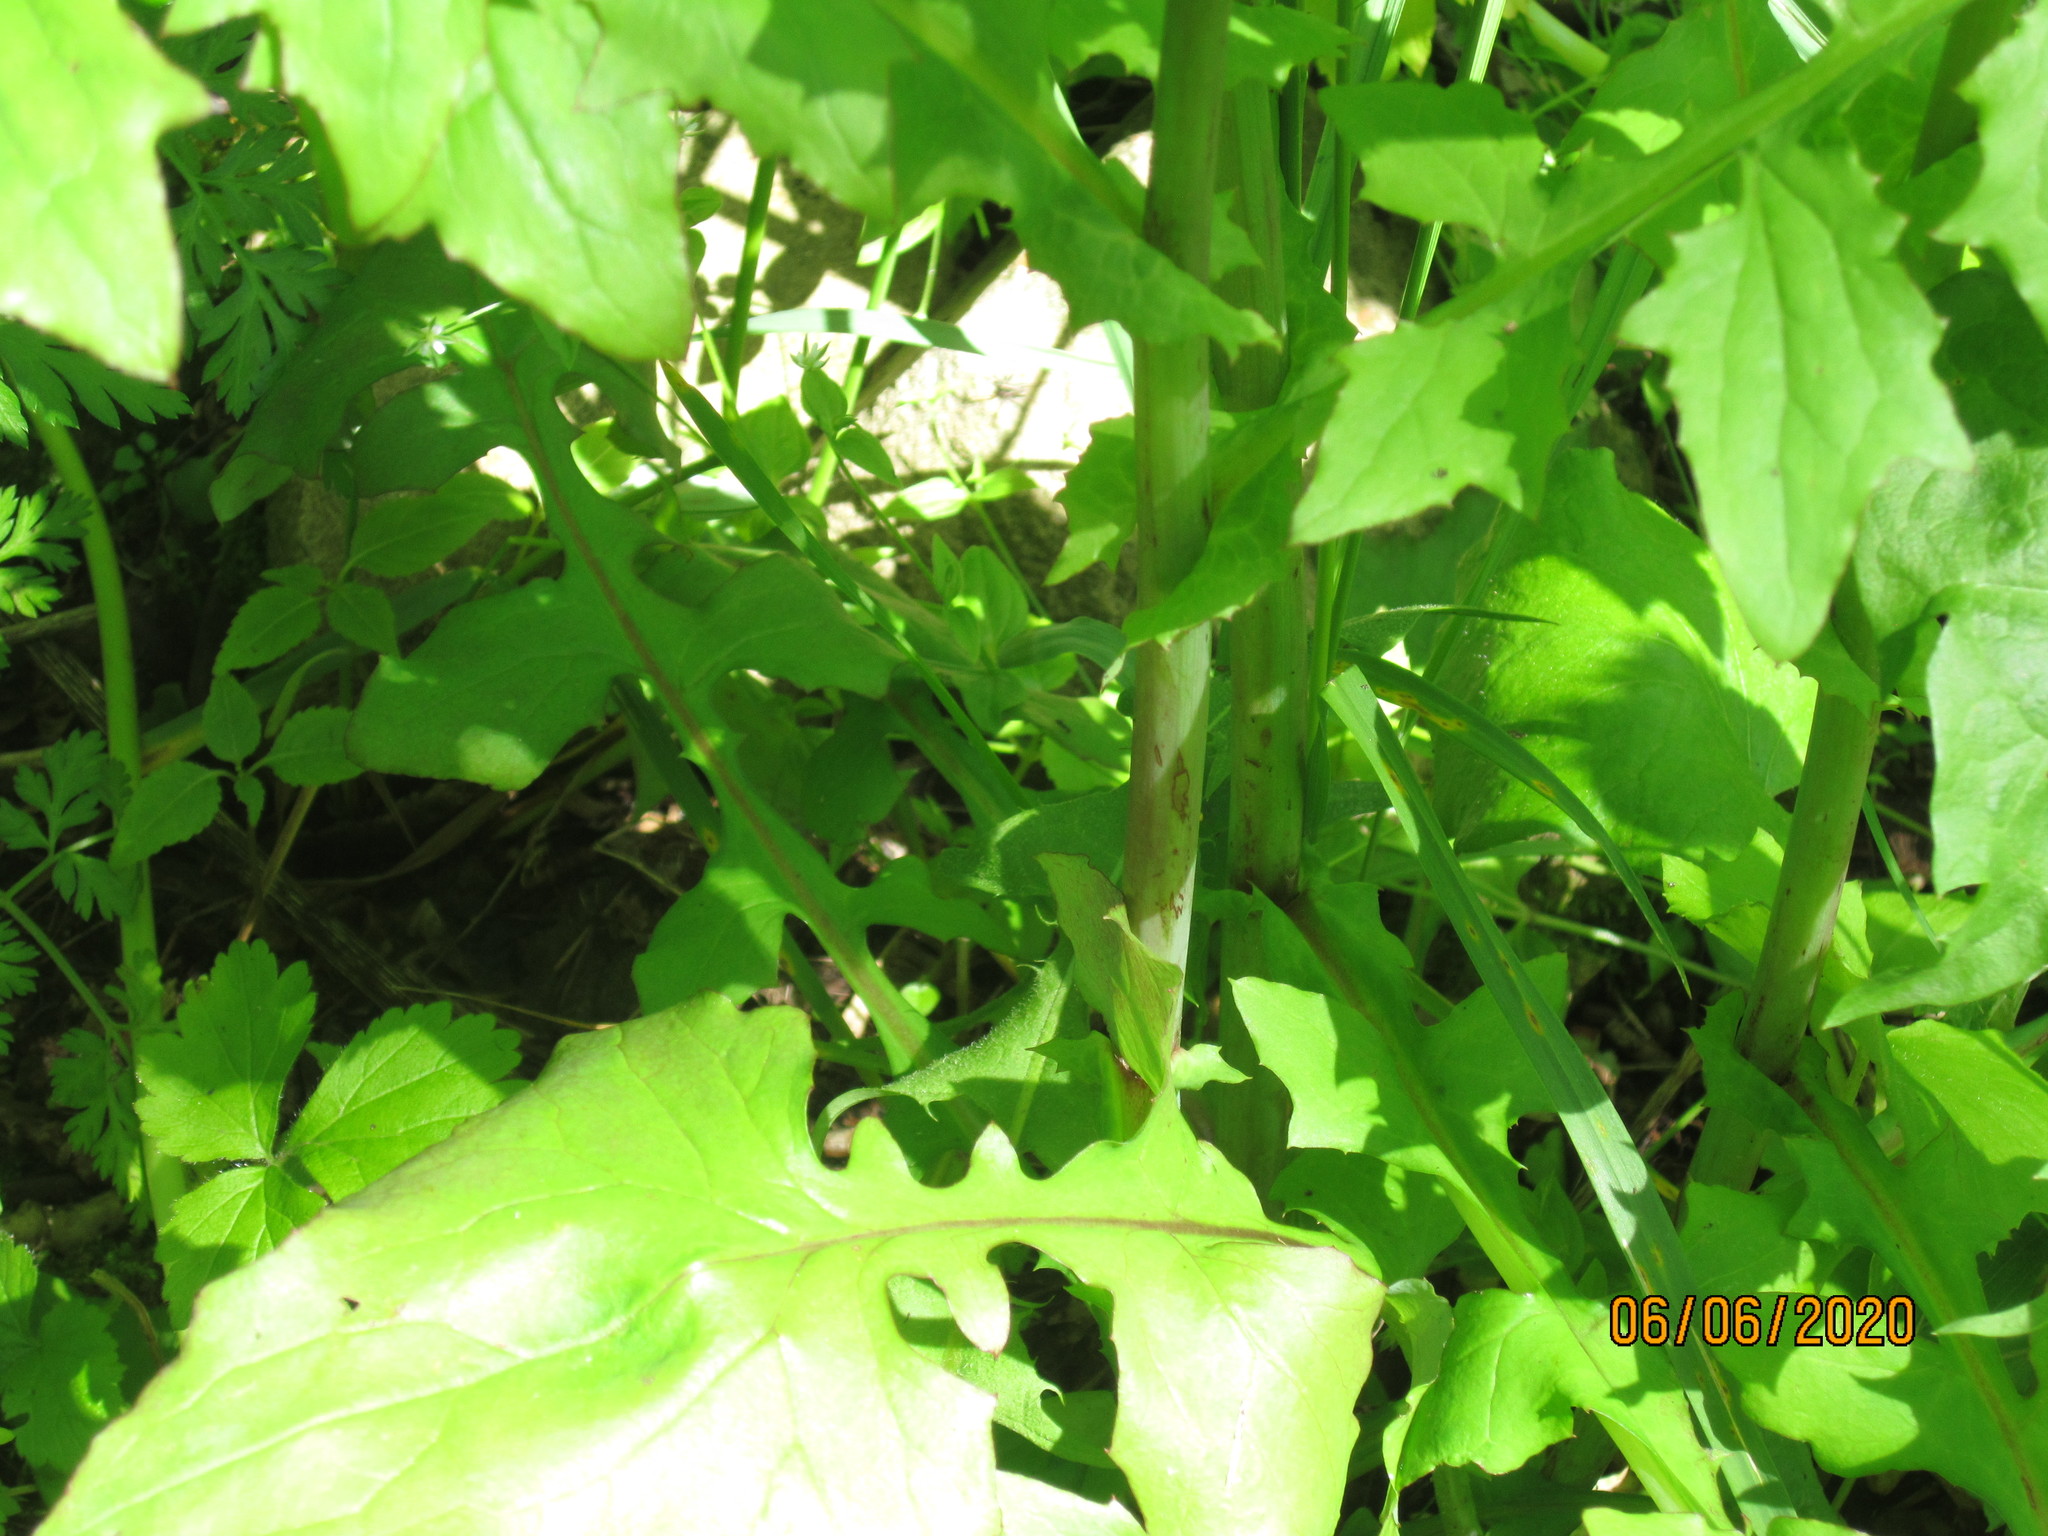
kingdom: Plantae
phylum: Tracheophyta
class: Magnoliopsida
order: Asterales
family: Asteraceae
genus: Mycelis
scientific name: Mycelis muralis
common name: Wall lettuce
